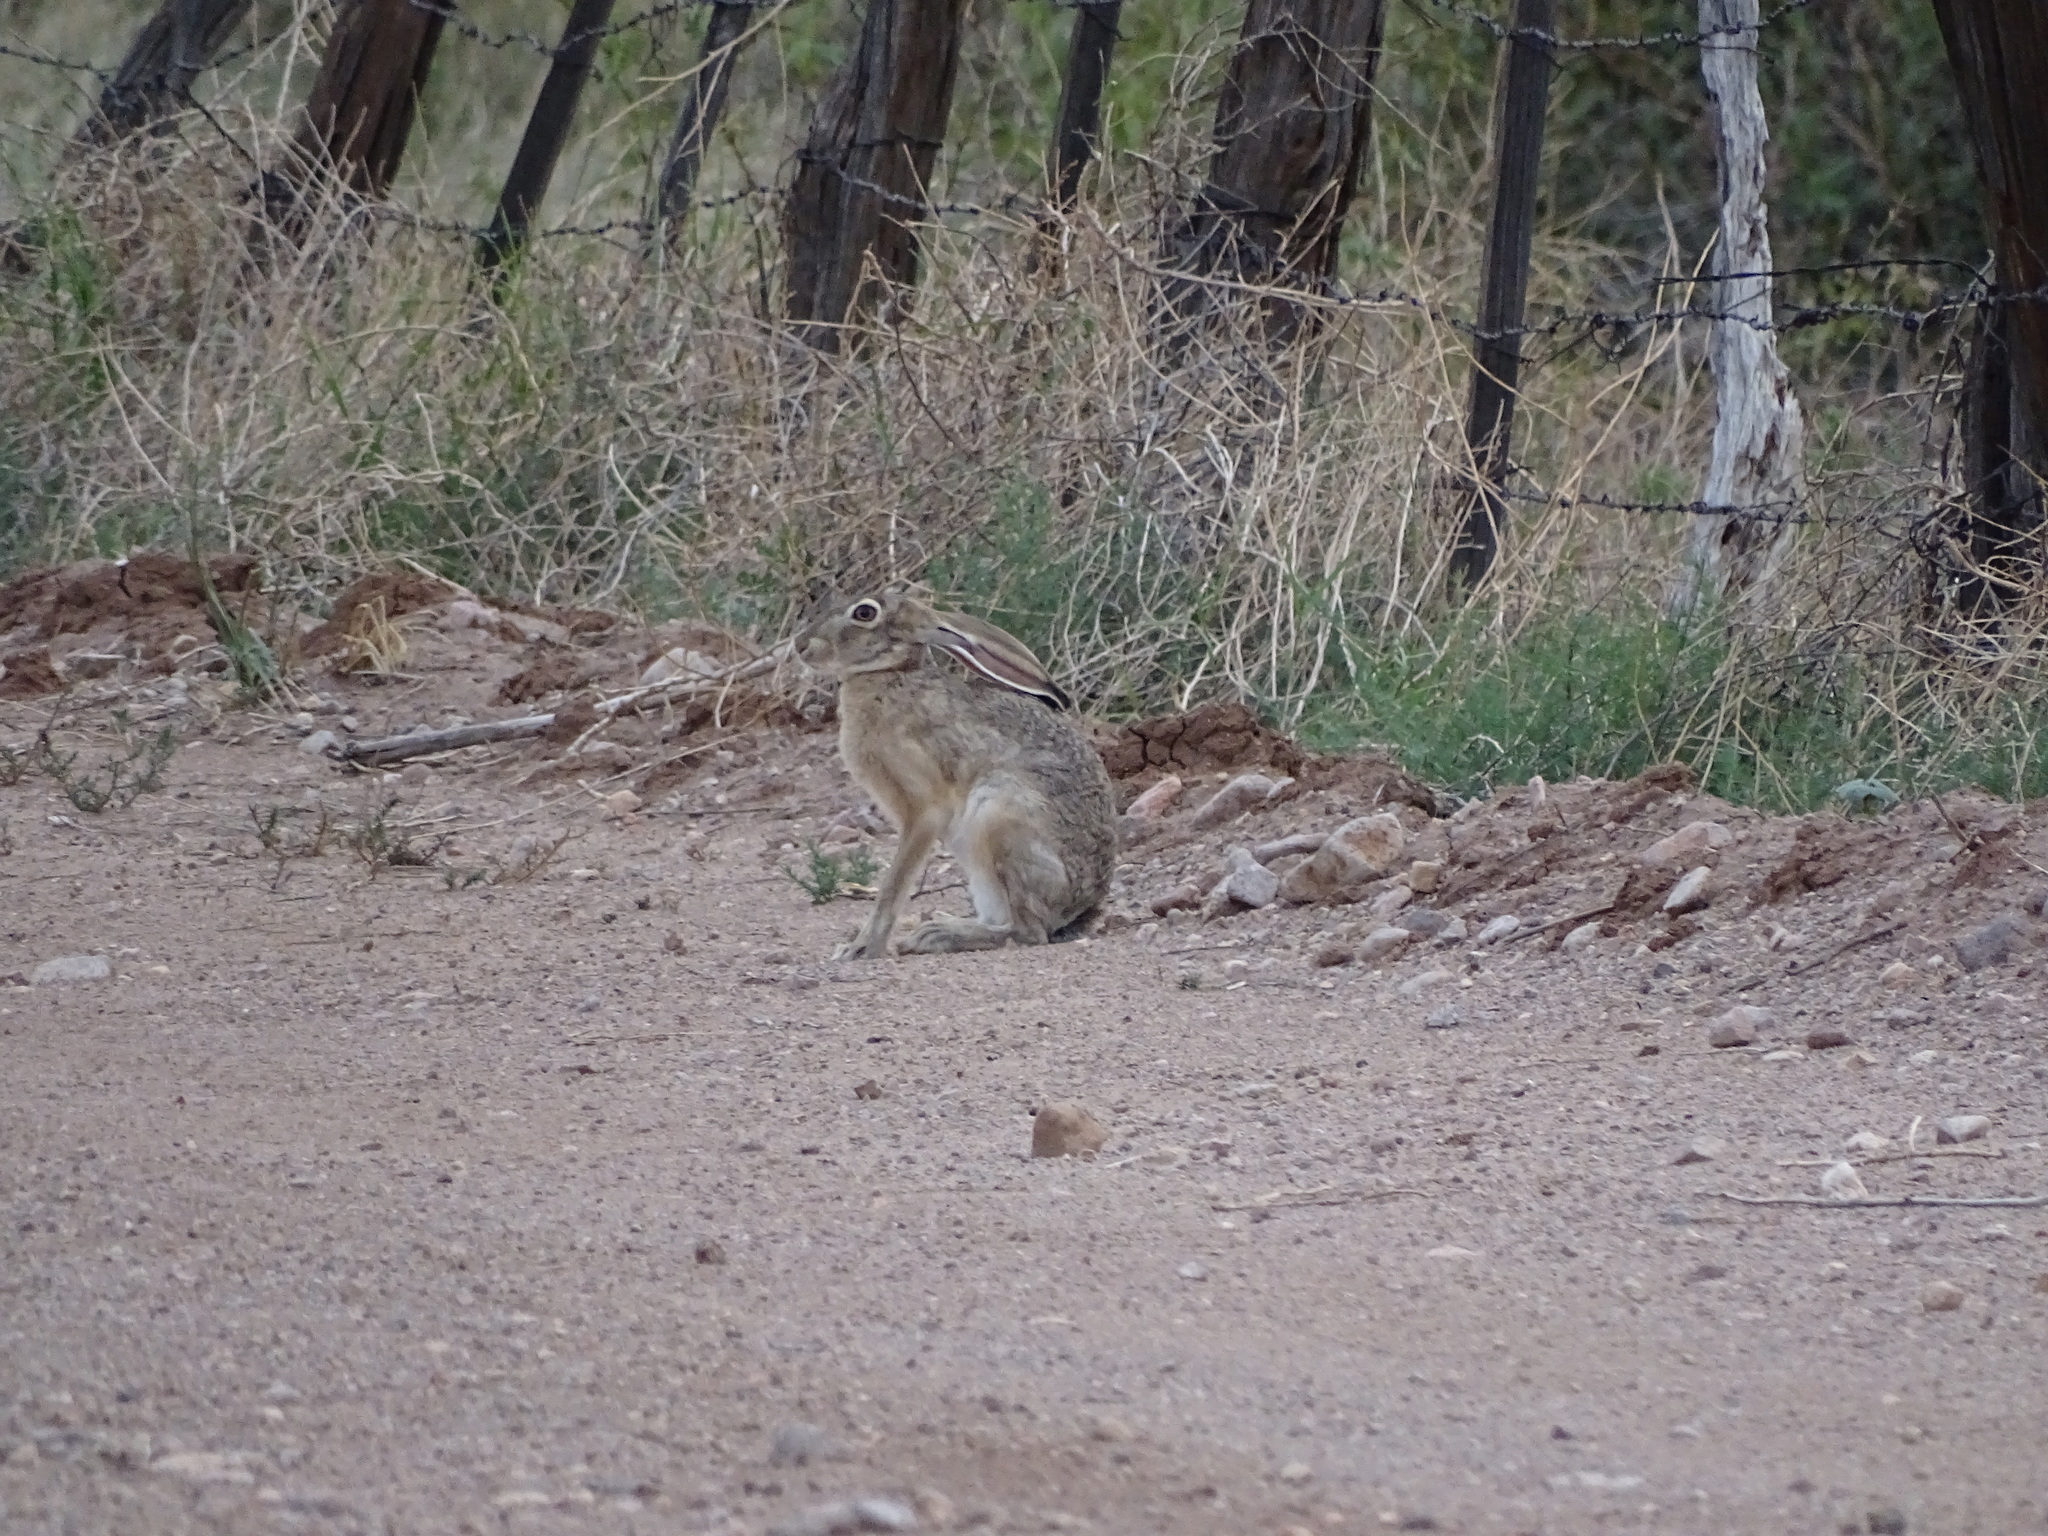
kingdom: Animalia
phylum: Chordata
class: Mammalia
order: Lagomorpha
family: Leporidae
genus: Lepus
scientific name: Lepus californicus
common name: Black-tailed jackrabbit
